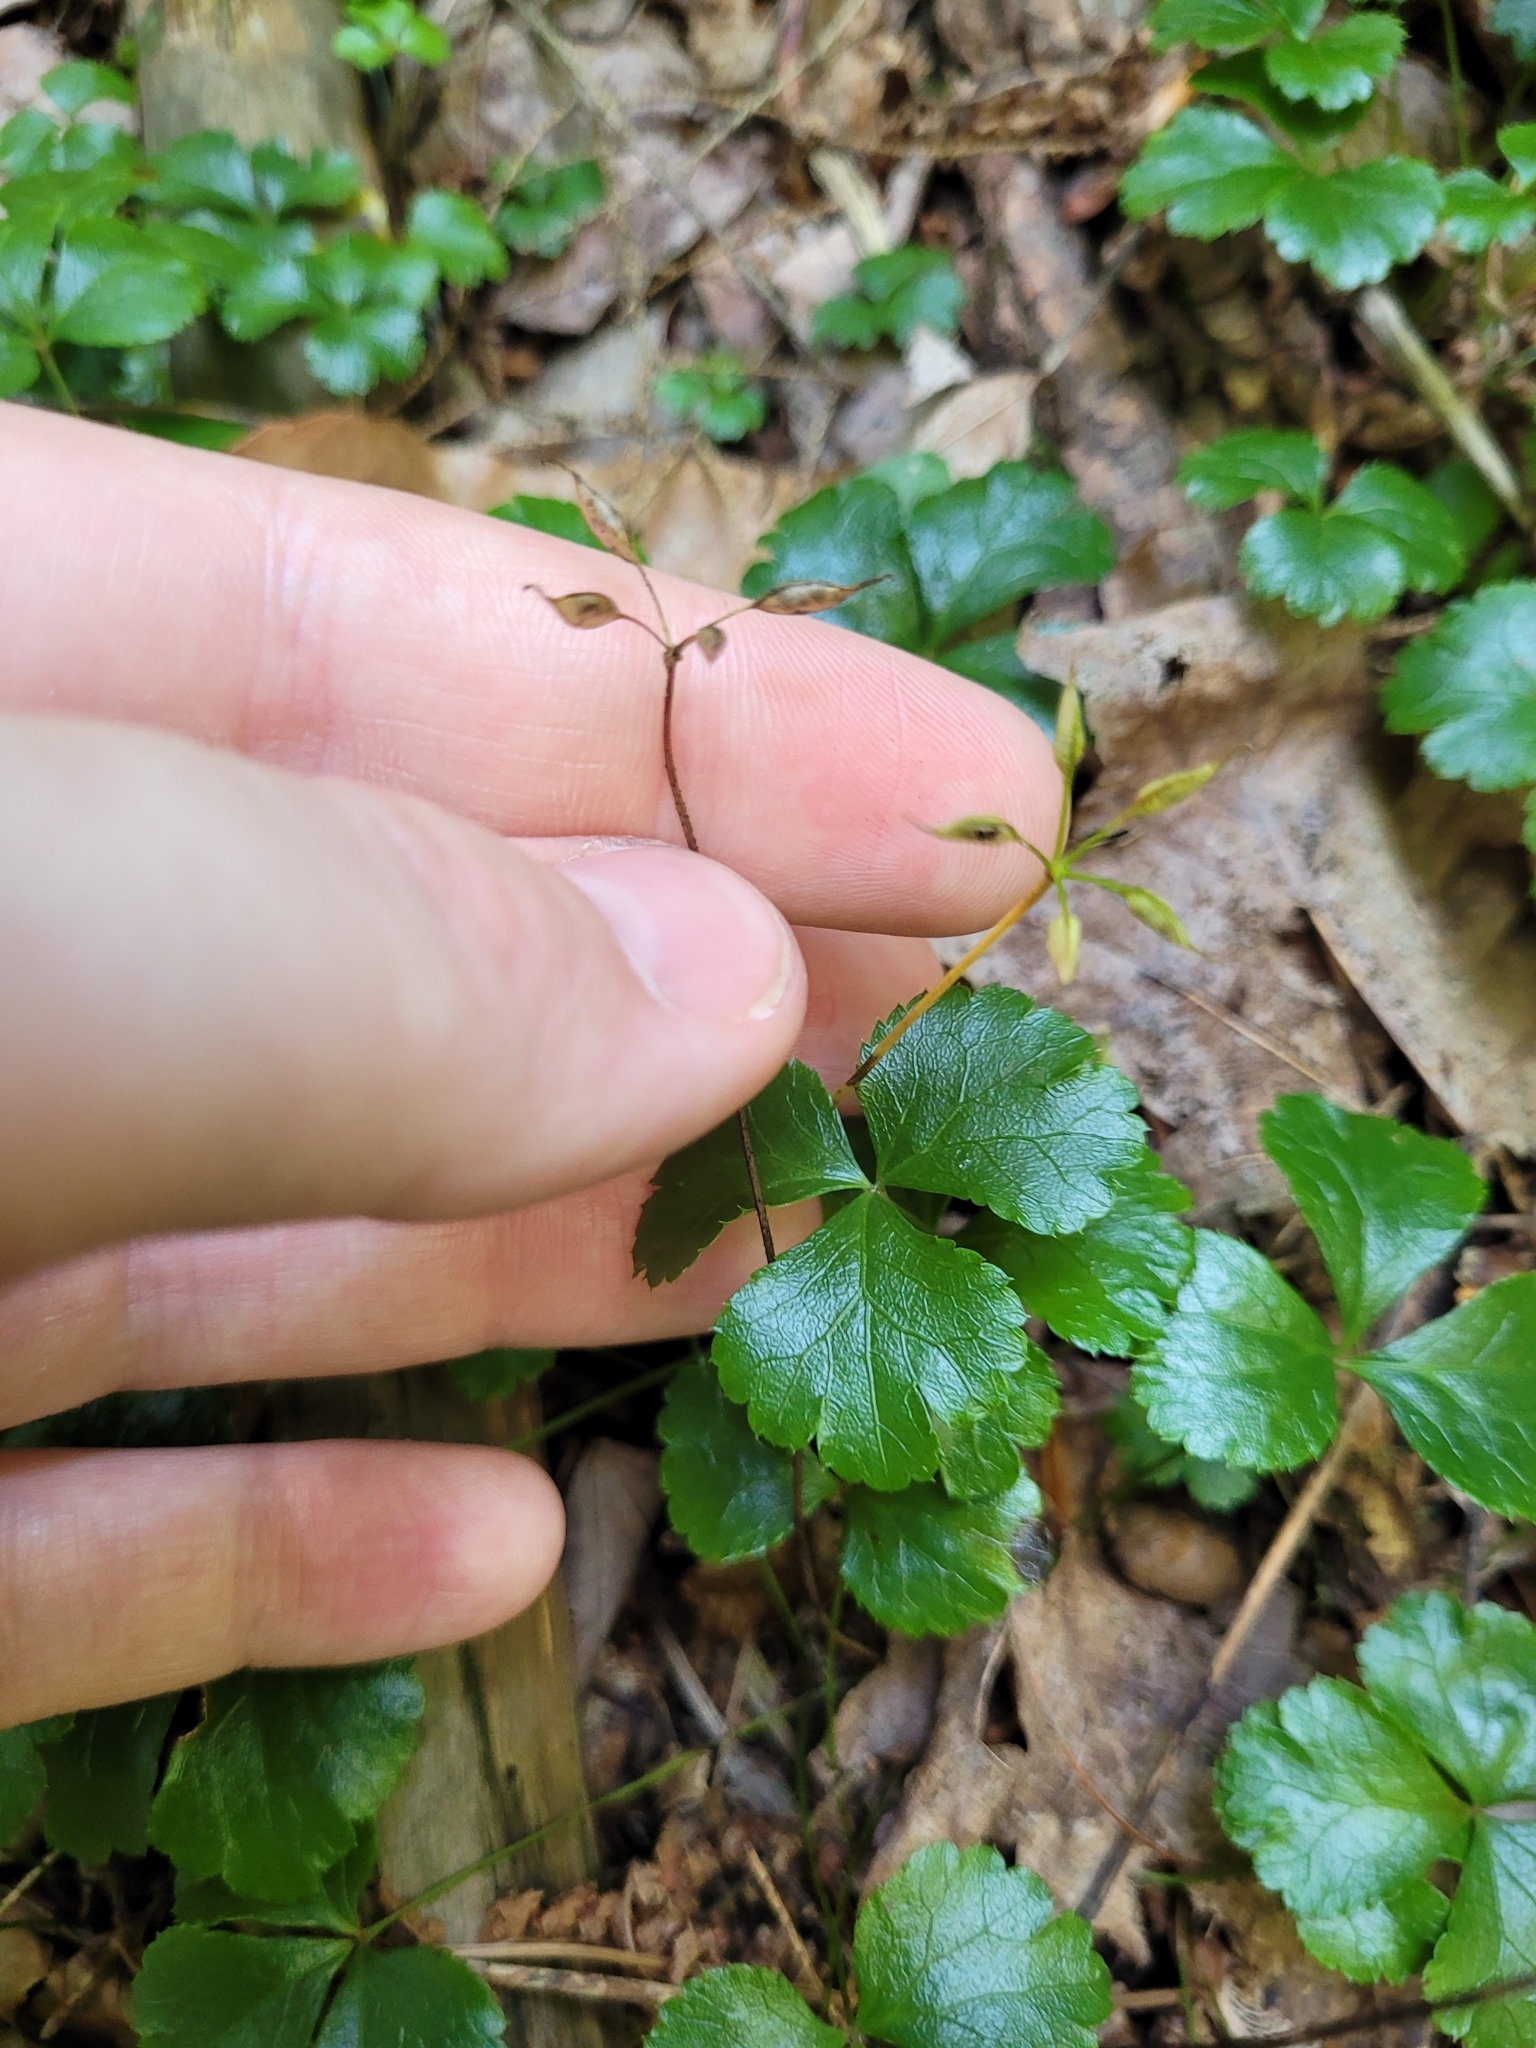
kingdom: Plantae
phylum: Tracheophyta
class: Magnoliopsida
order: Ranunculales
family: Ranunculaceae
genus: Coptis
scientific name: Coptis trifolia
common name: Canker-root
